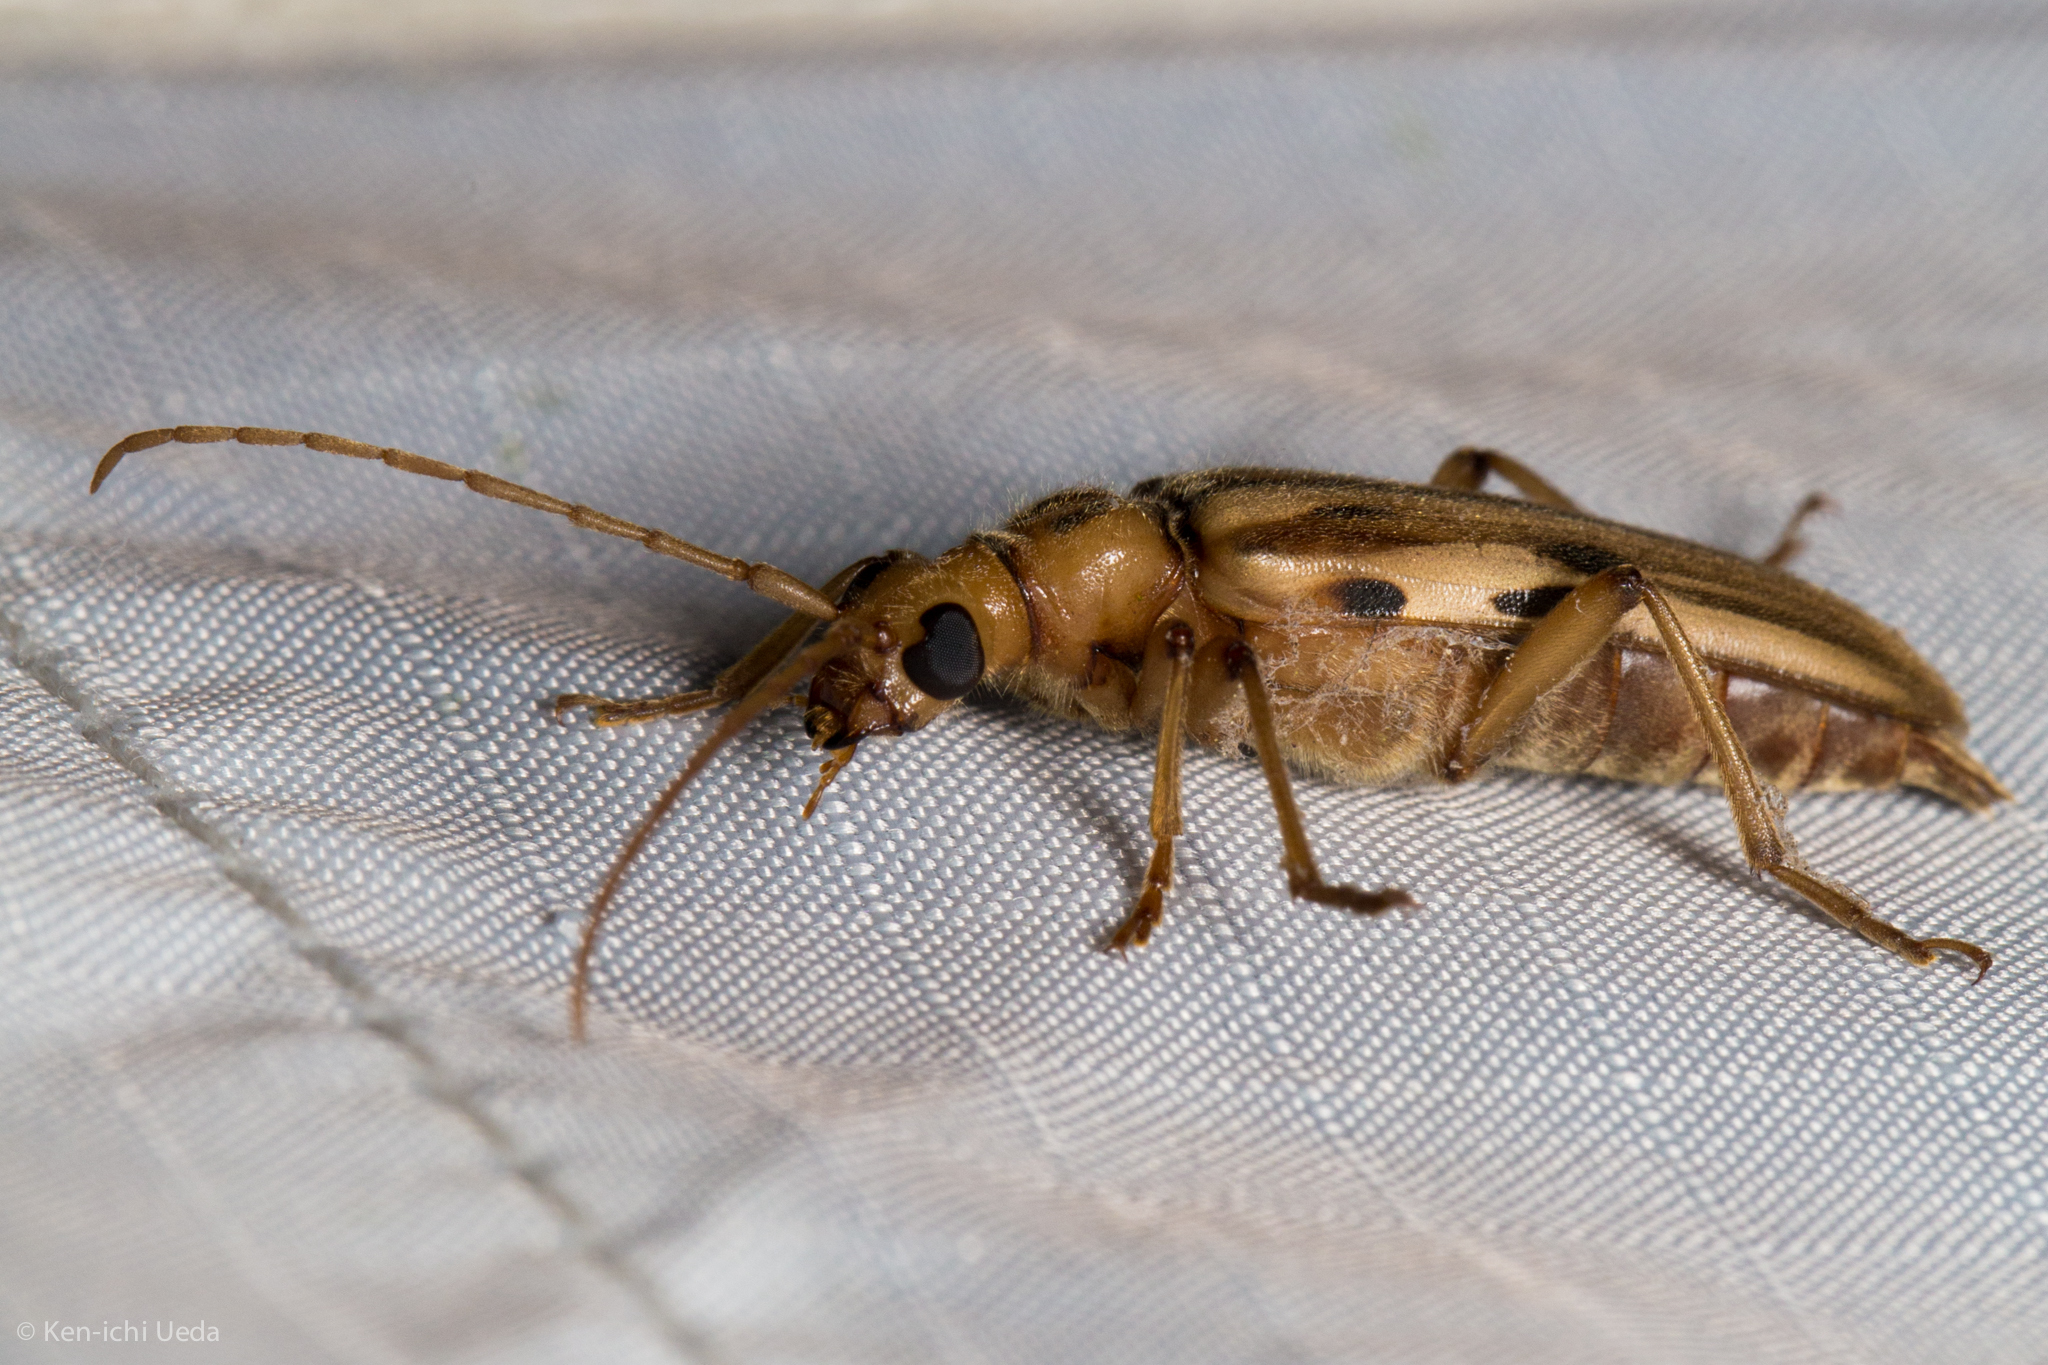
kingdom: Animalia
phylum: Arthropoda
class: Insecta
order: Coleoptera
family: Cerambycidae
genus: Ortholeptura
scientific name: Ortholeptura valida
